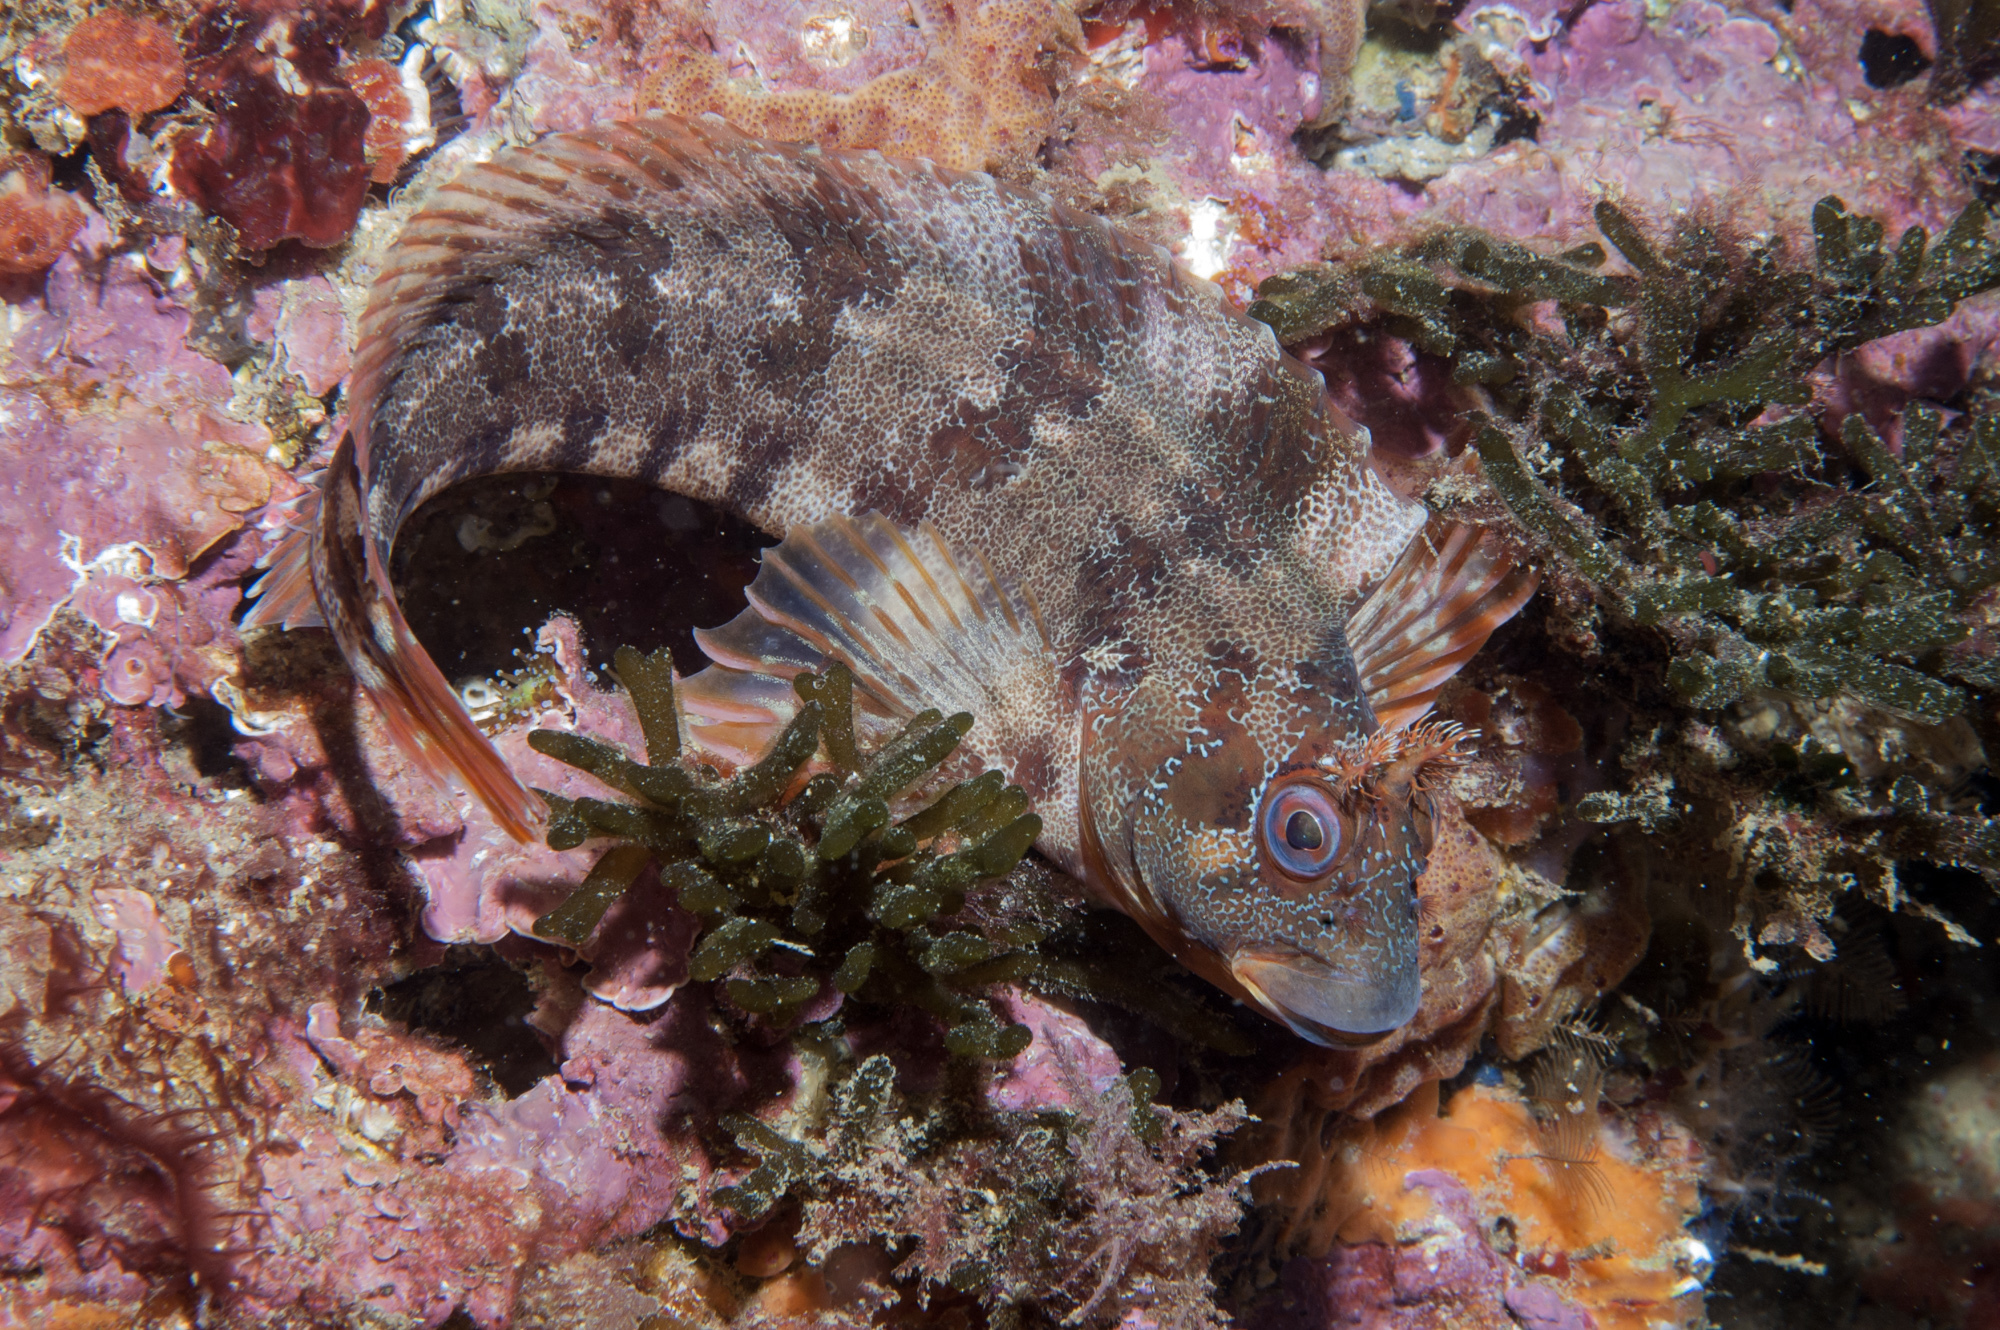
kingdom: Animalia
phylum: Chordata
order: Perciformes
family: Blenniidae
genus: Parablennius
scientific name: Parablennius gattorugine
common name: Tompot blenny
